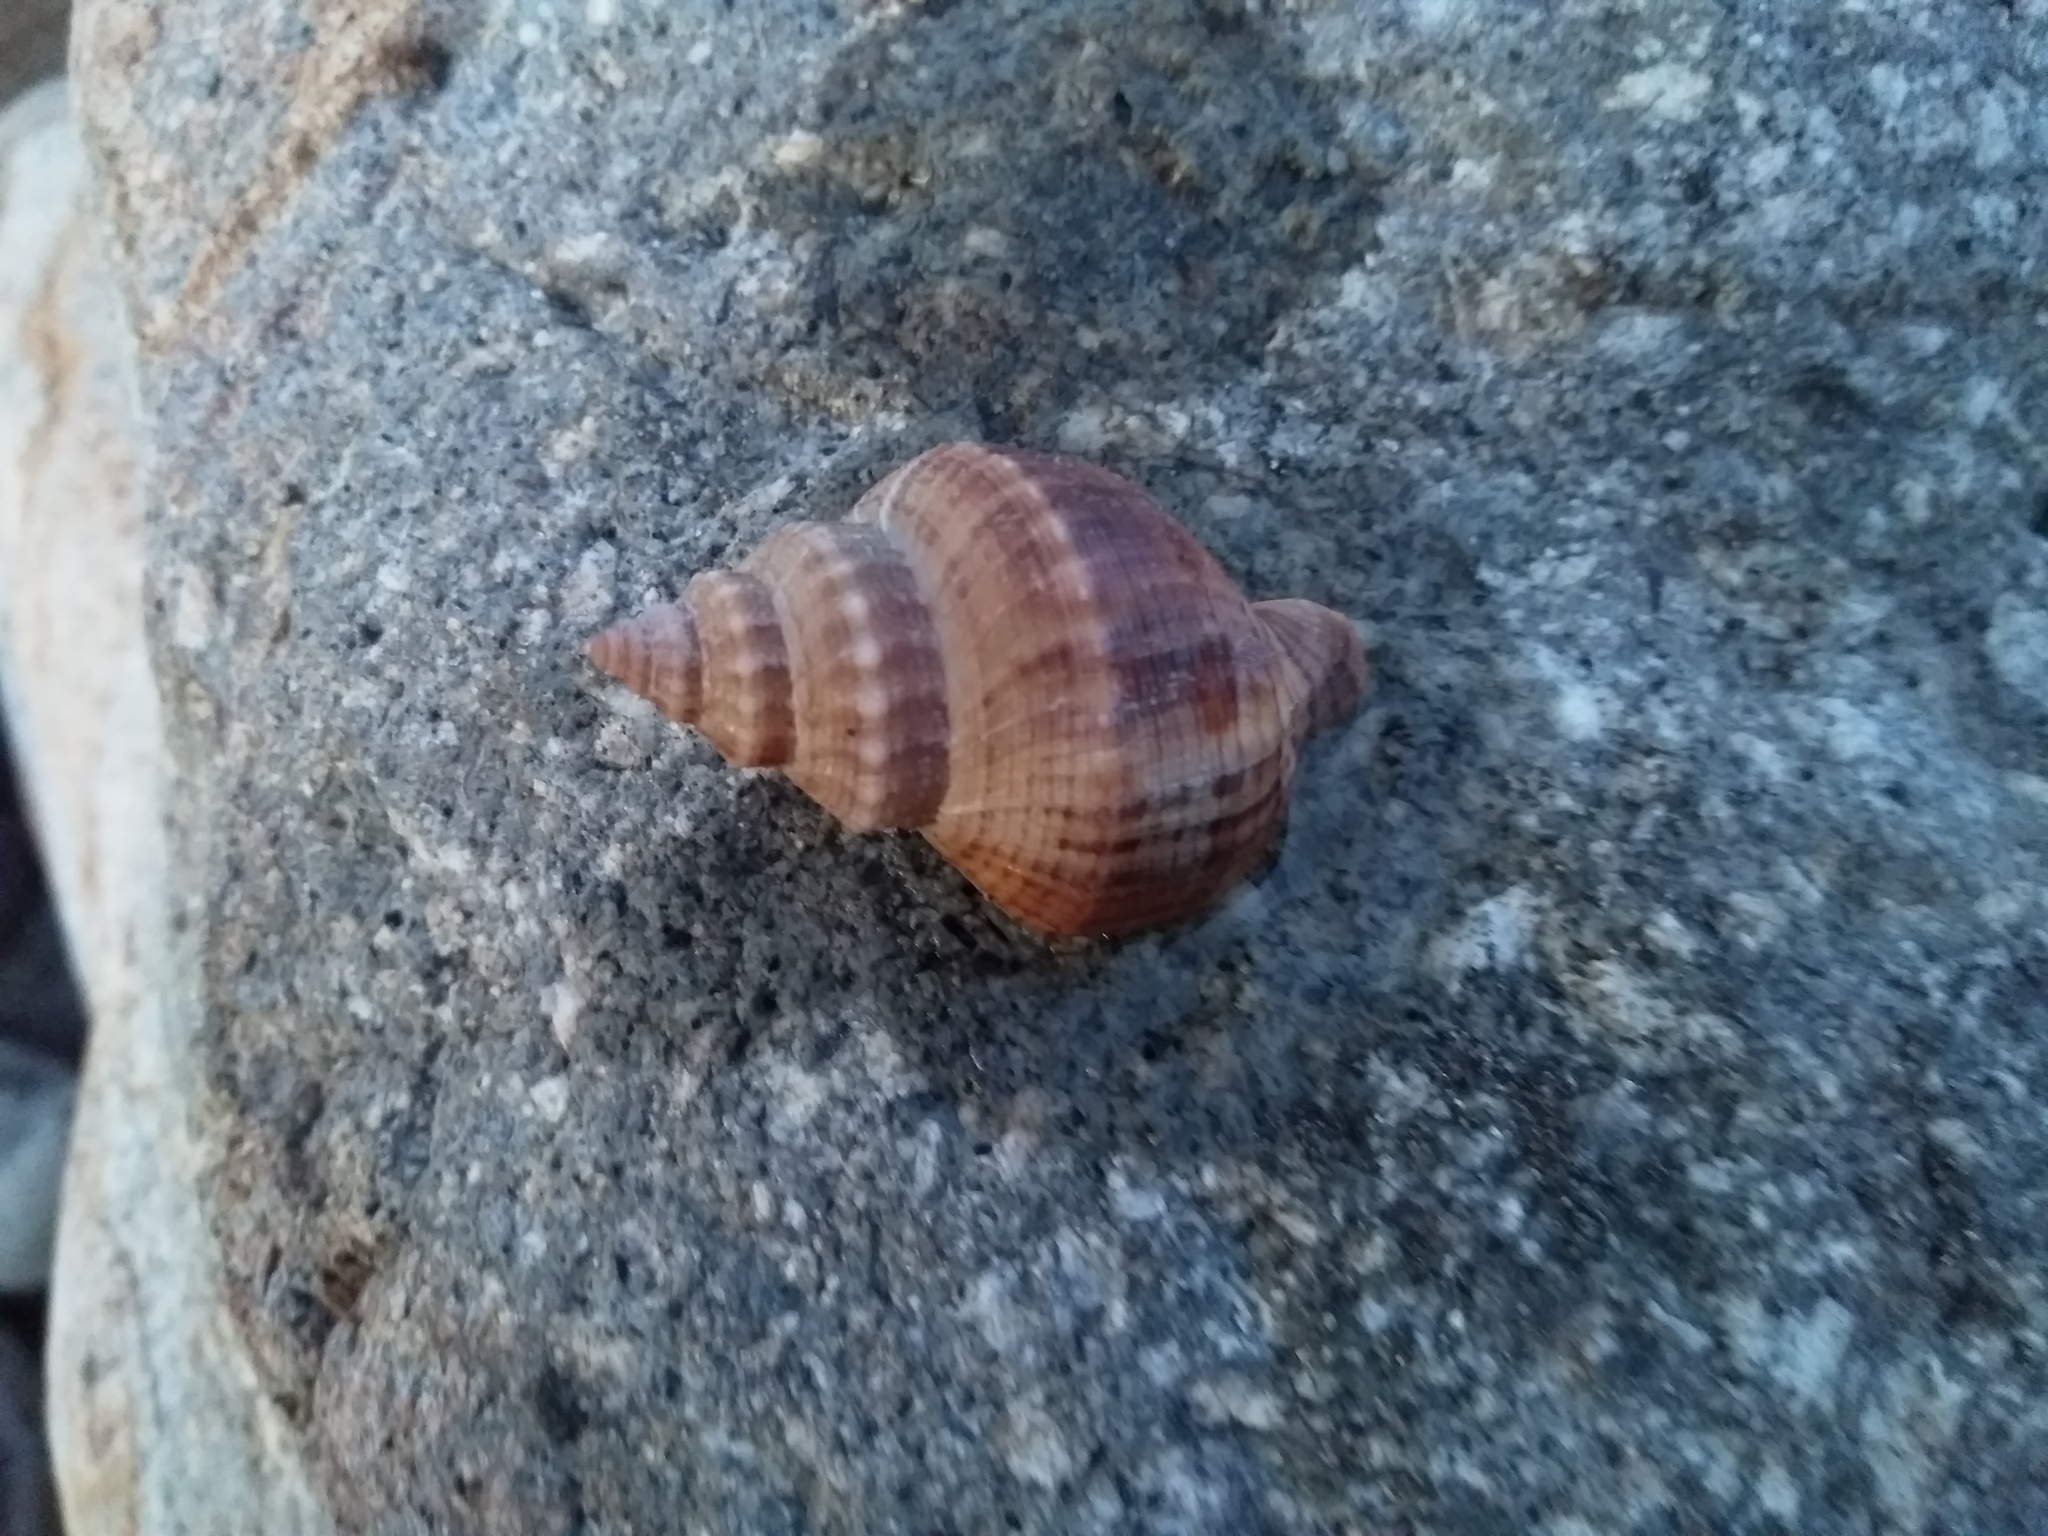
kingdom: Animalia
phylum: Mollusca
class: Gastropoda
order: Neogastropoda
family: Prosiphonidae
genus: Austrofusus
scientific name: Austrofusus glans
